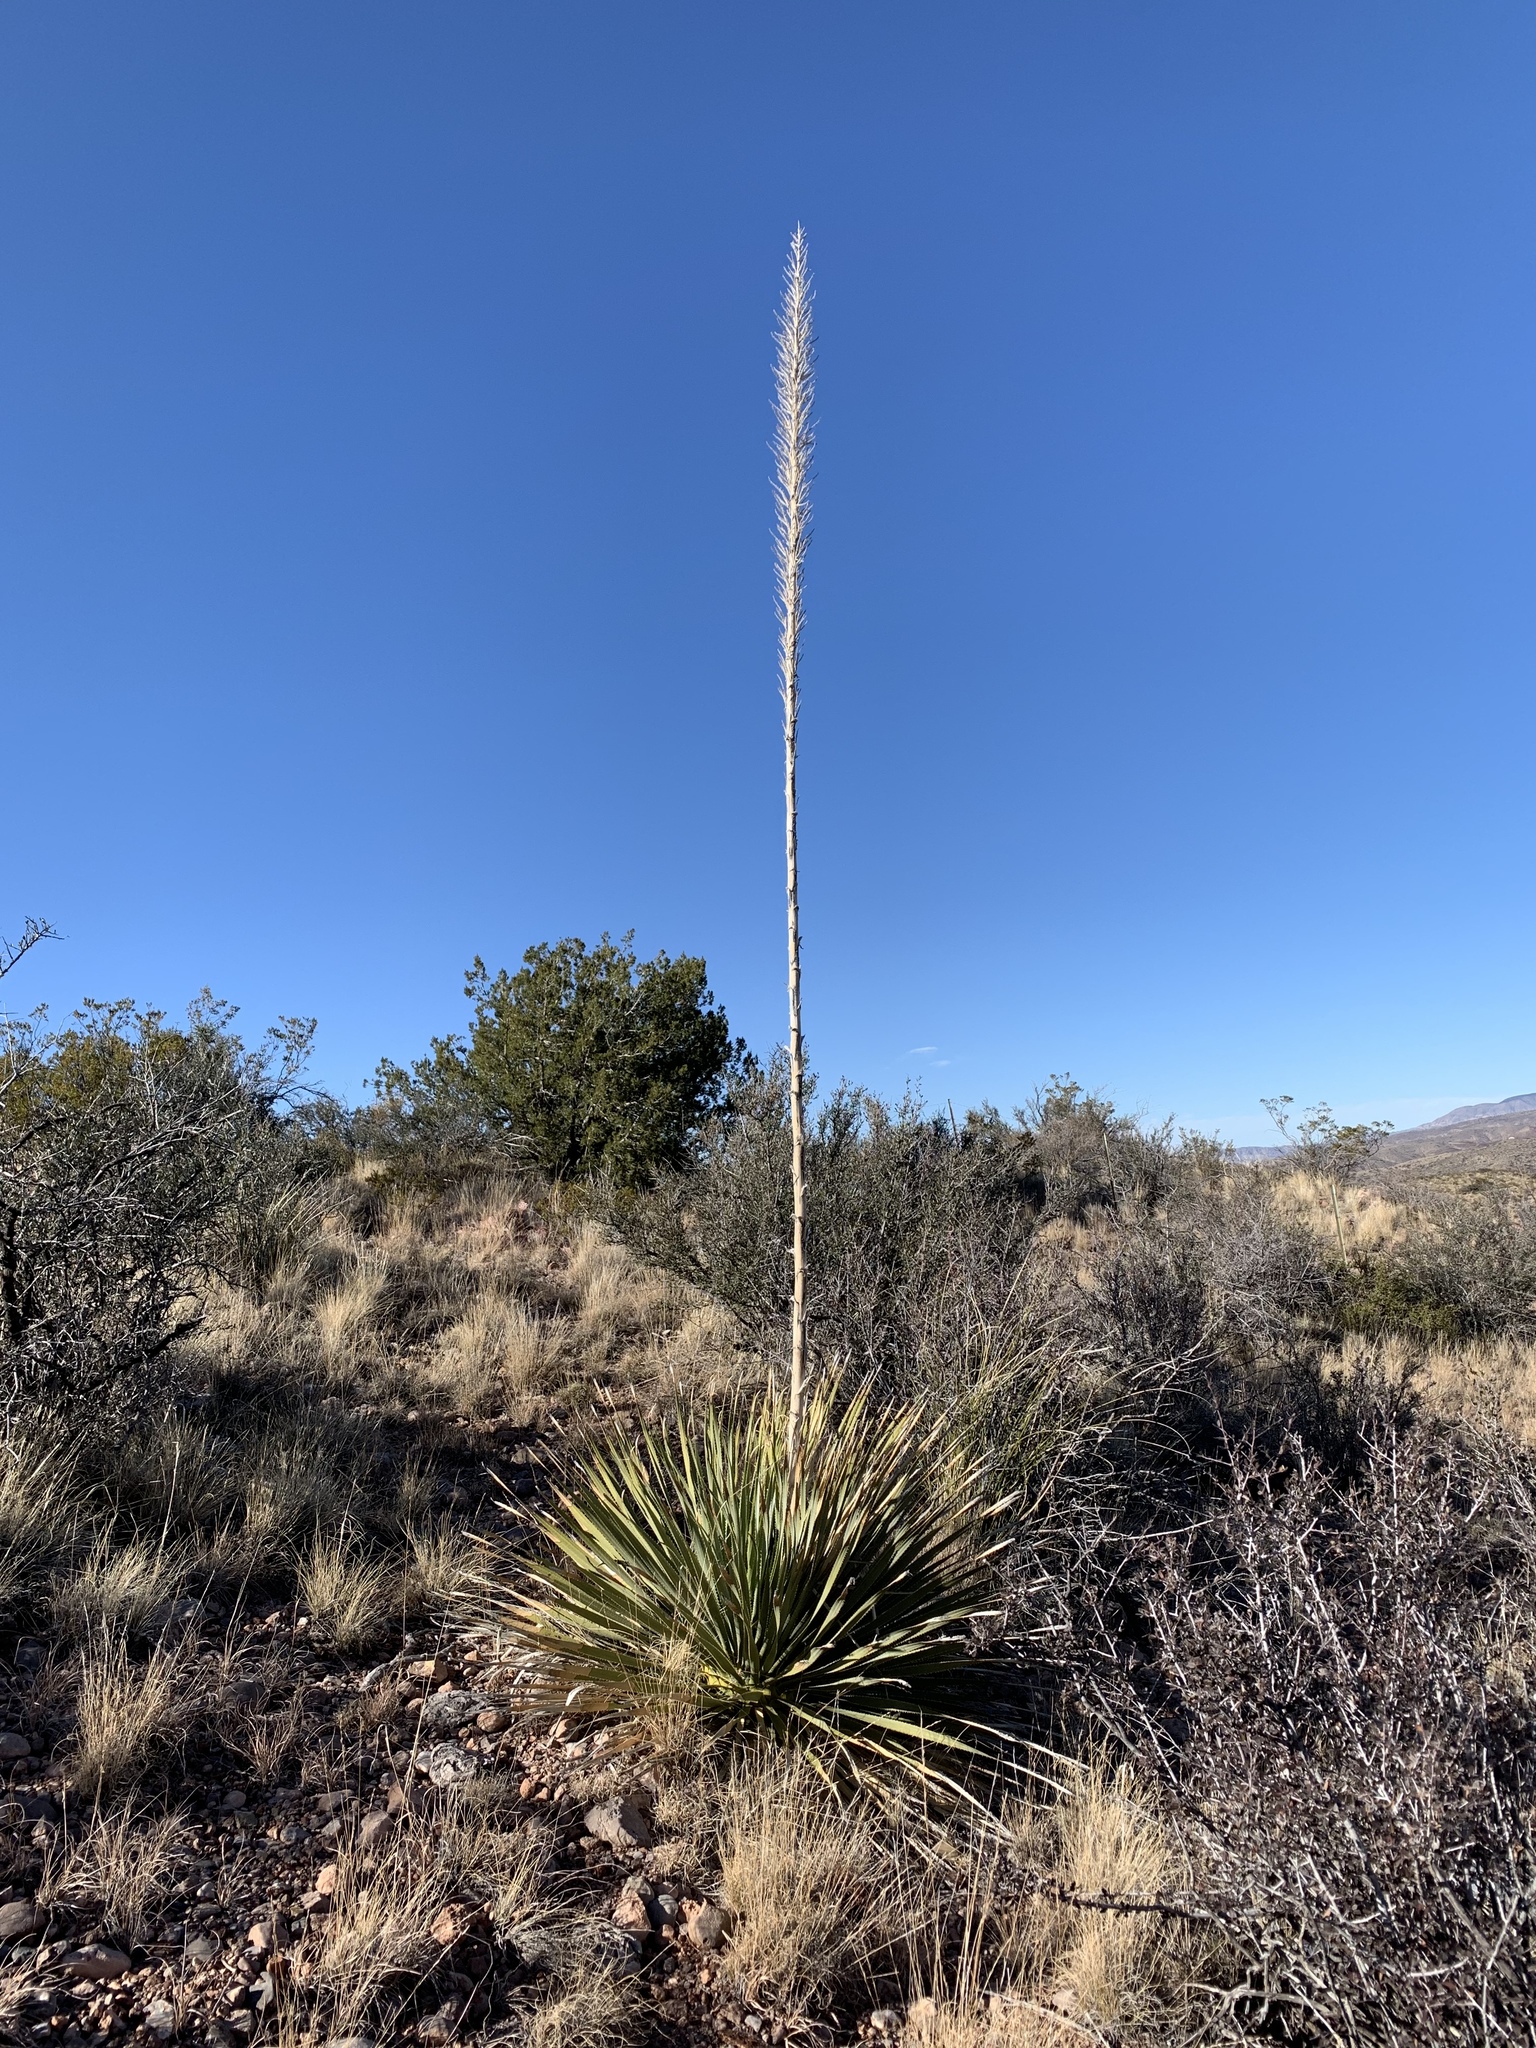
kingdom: Plantae
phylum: Tracheophyta
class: Liliopsida
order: Asparagales
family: Asparagaceae
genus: Dasylirion
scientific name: Dasylirion wheeleri
